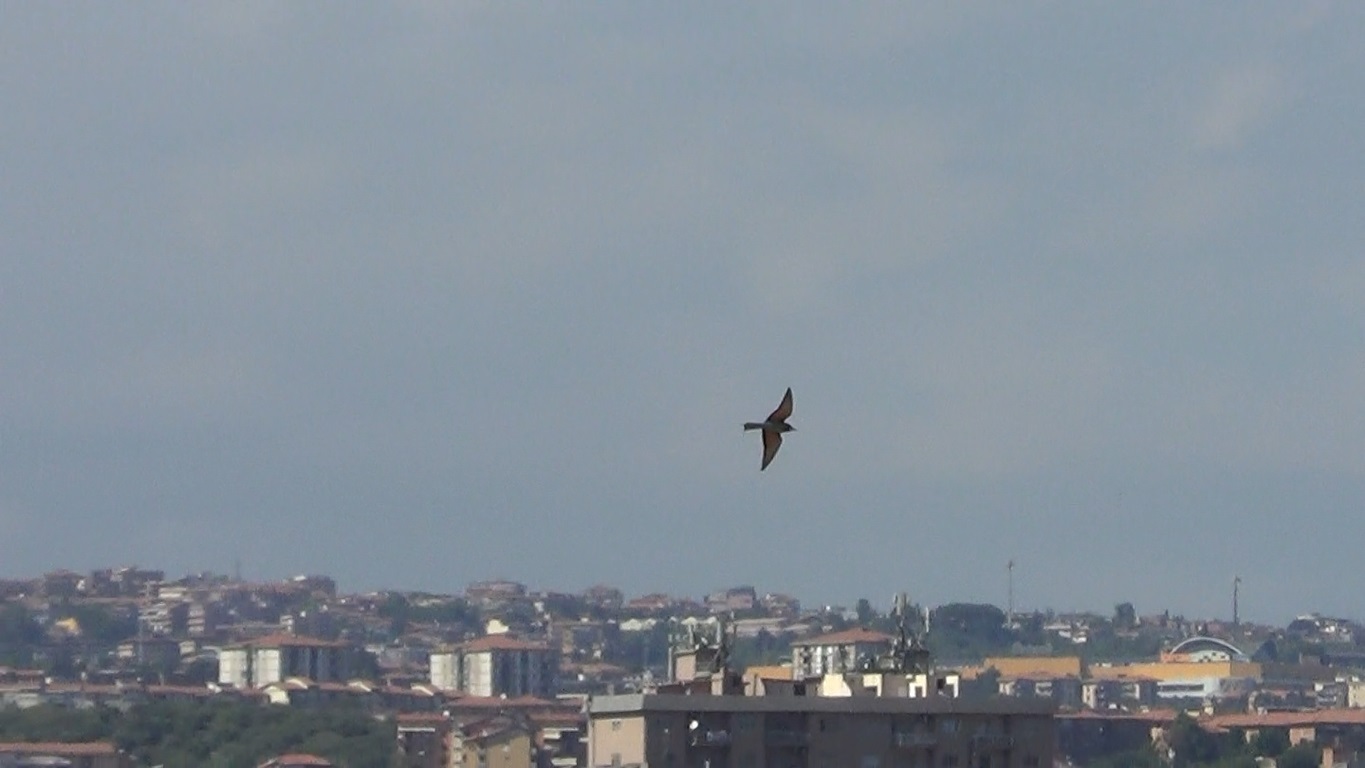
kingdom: Animalia
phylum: Chordata
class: Aves
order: Coraciiformes
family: Meropidae
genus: Merops
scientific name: Merops apiaster
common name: European bee-eater
